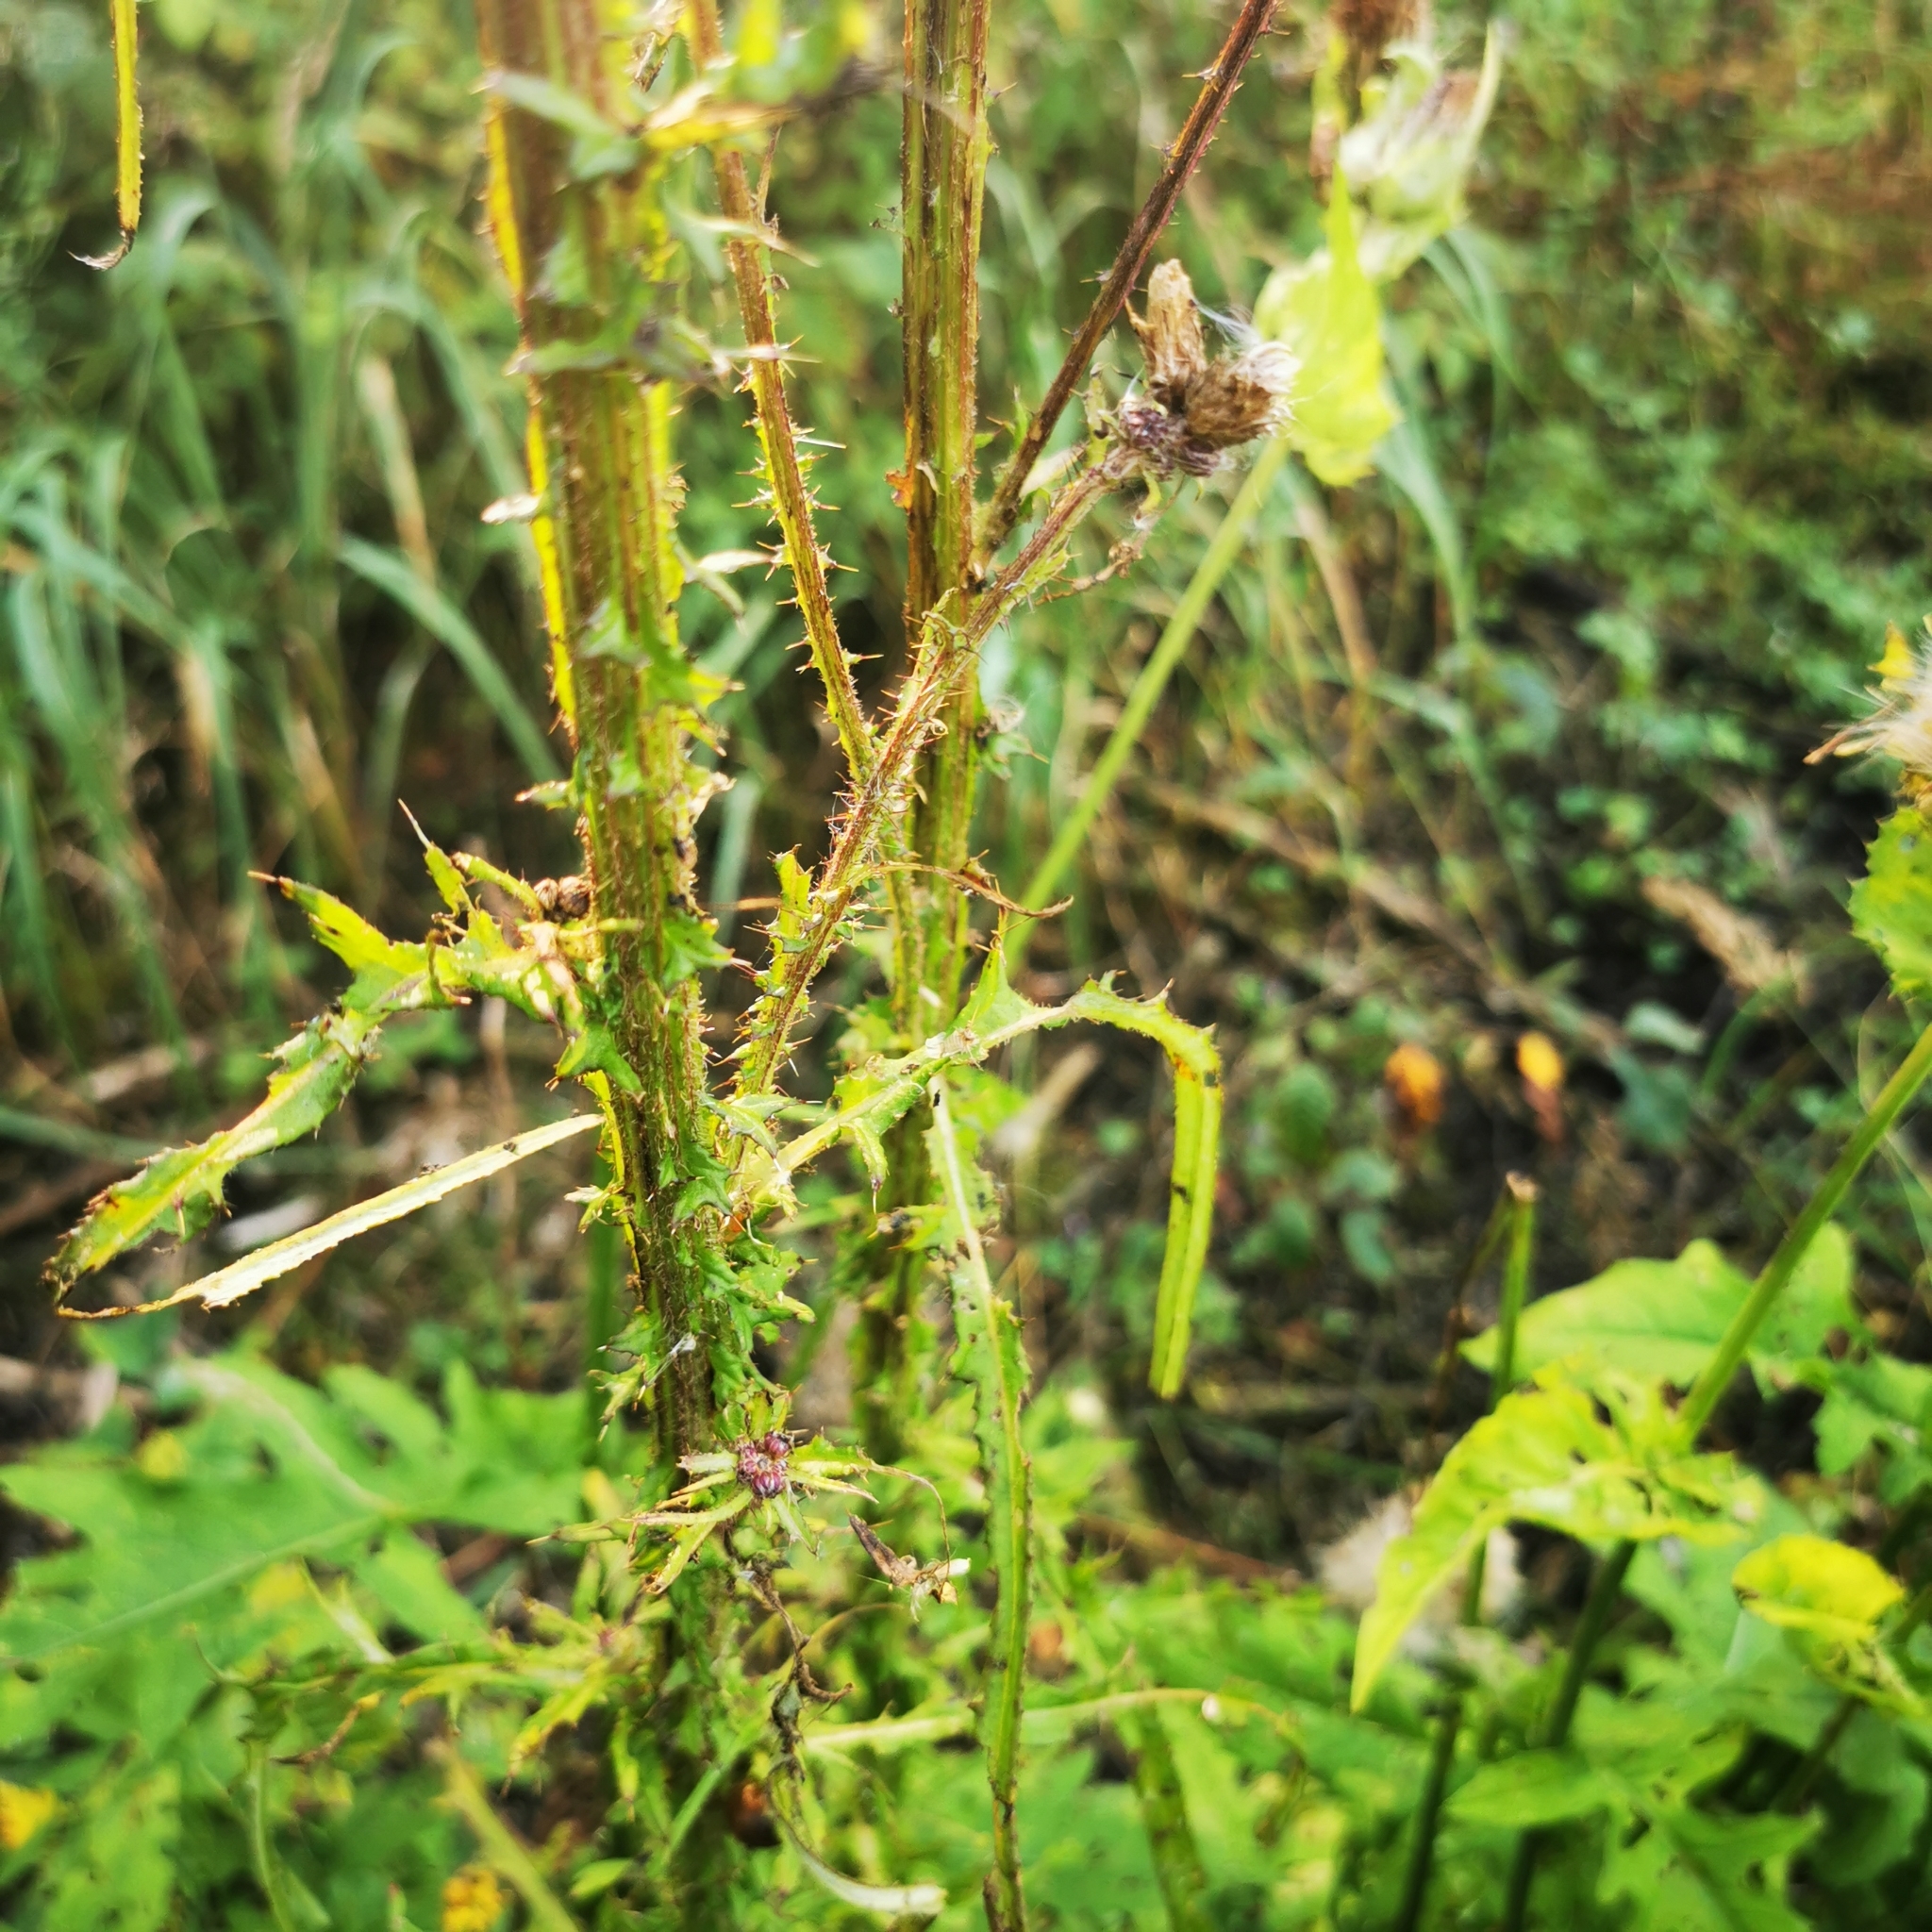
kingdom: Plantae
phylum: Tracheophyta
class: Magnoliopsida
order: Asterales
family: Asteraceae
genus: Cirsium
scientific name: Cirsium palustre
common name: Marsh thistle
